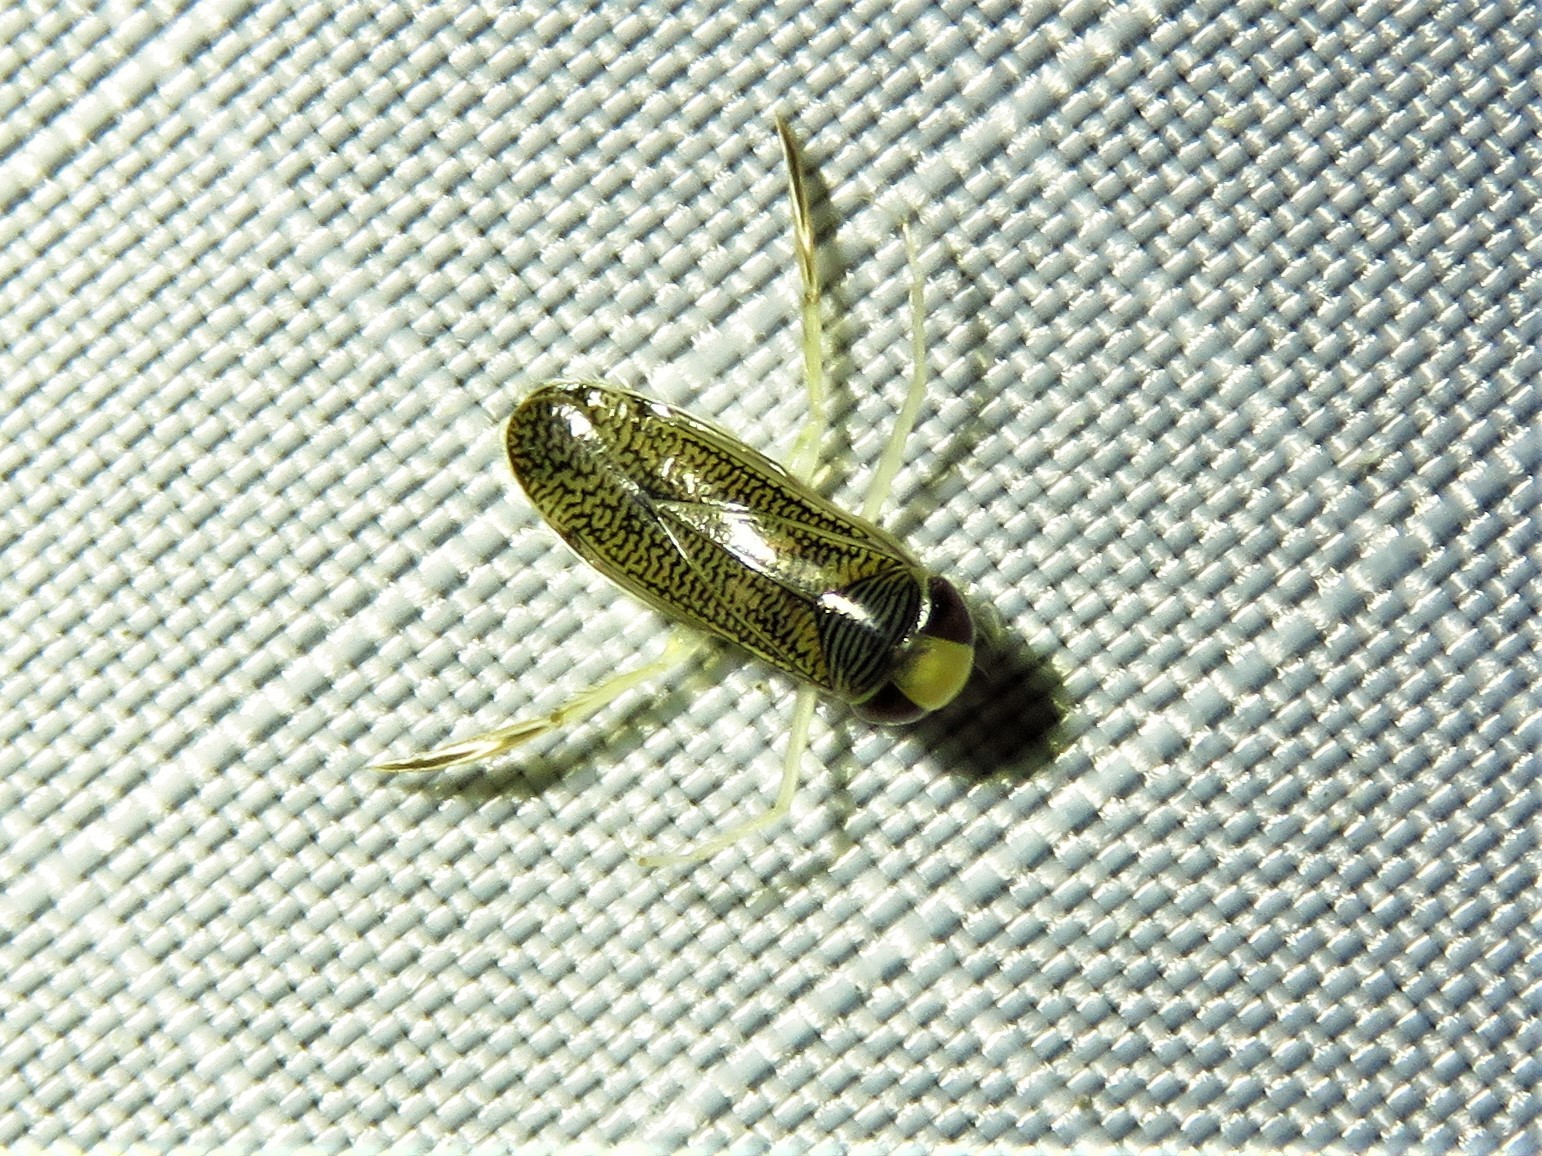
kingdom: Animalia
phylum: Arthropoda
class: Insecta
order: Hemiptera
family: Corixidae
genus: Trichocorixa
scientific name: Trichocorixa
